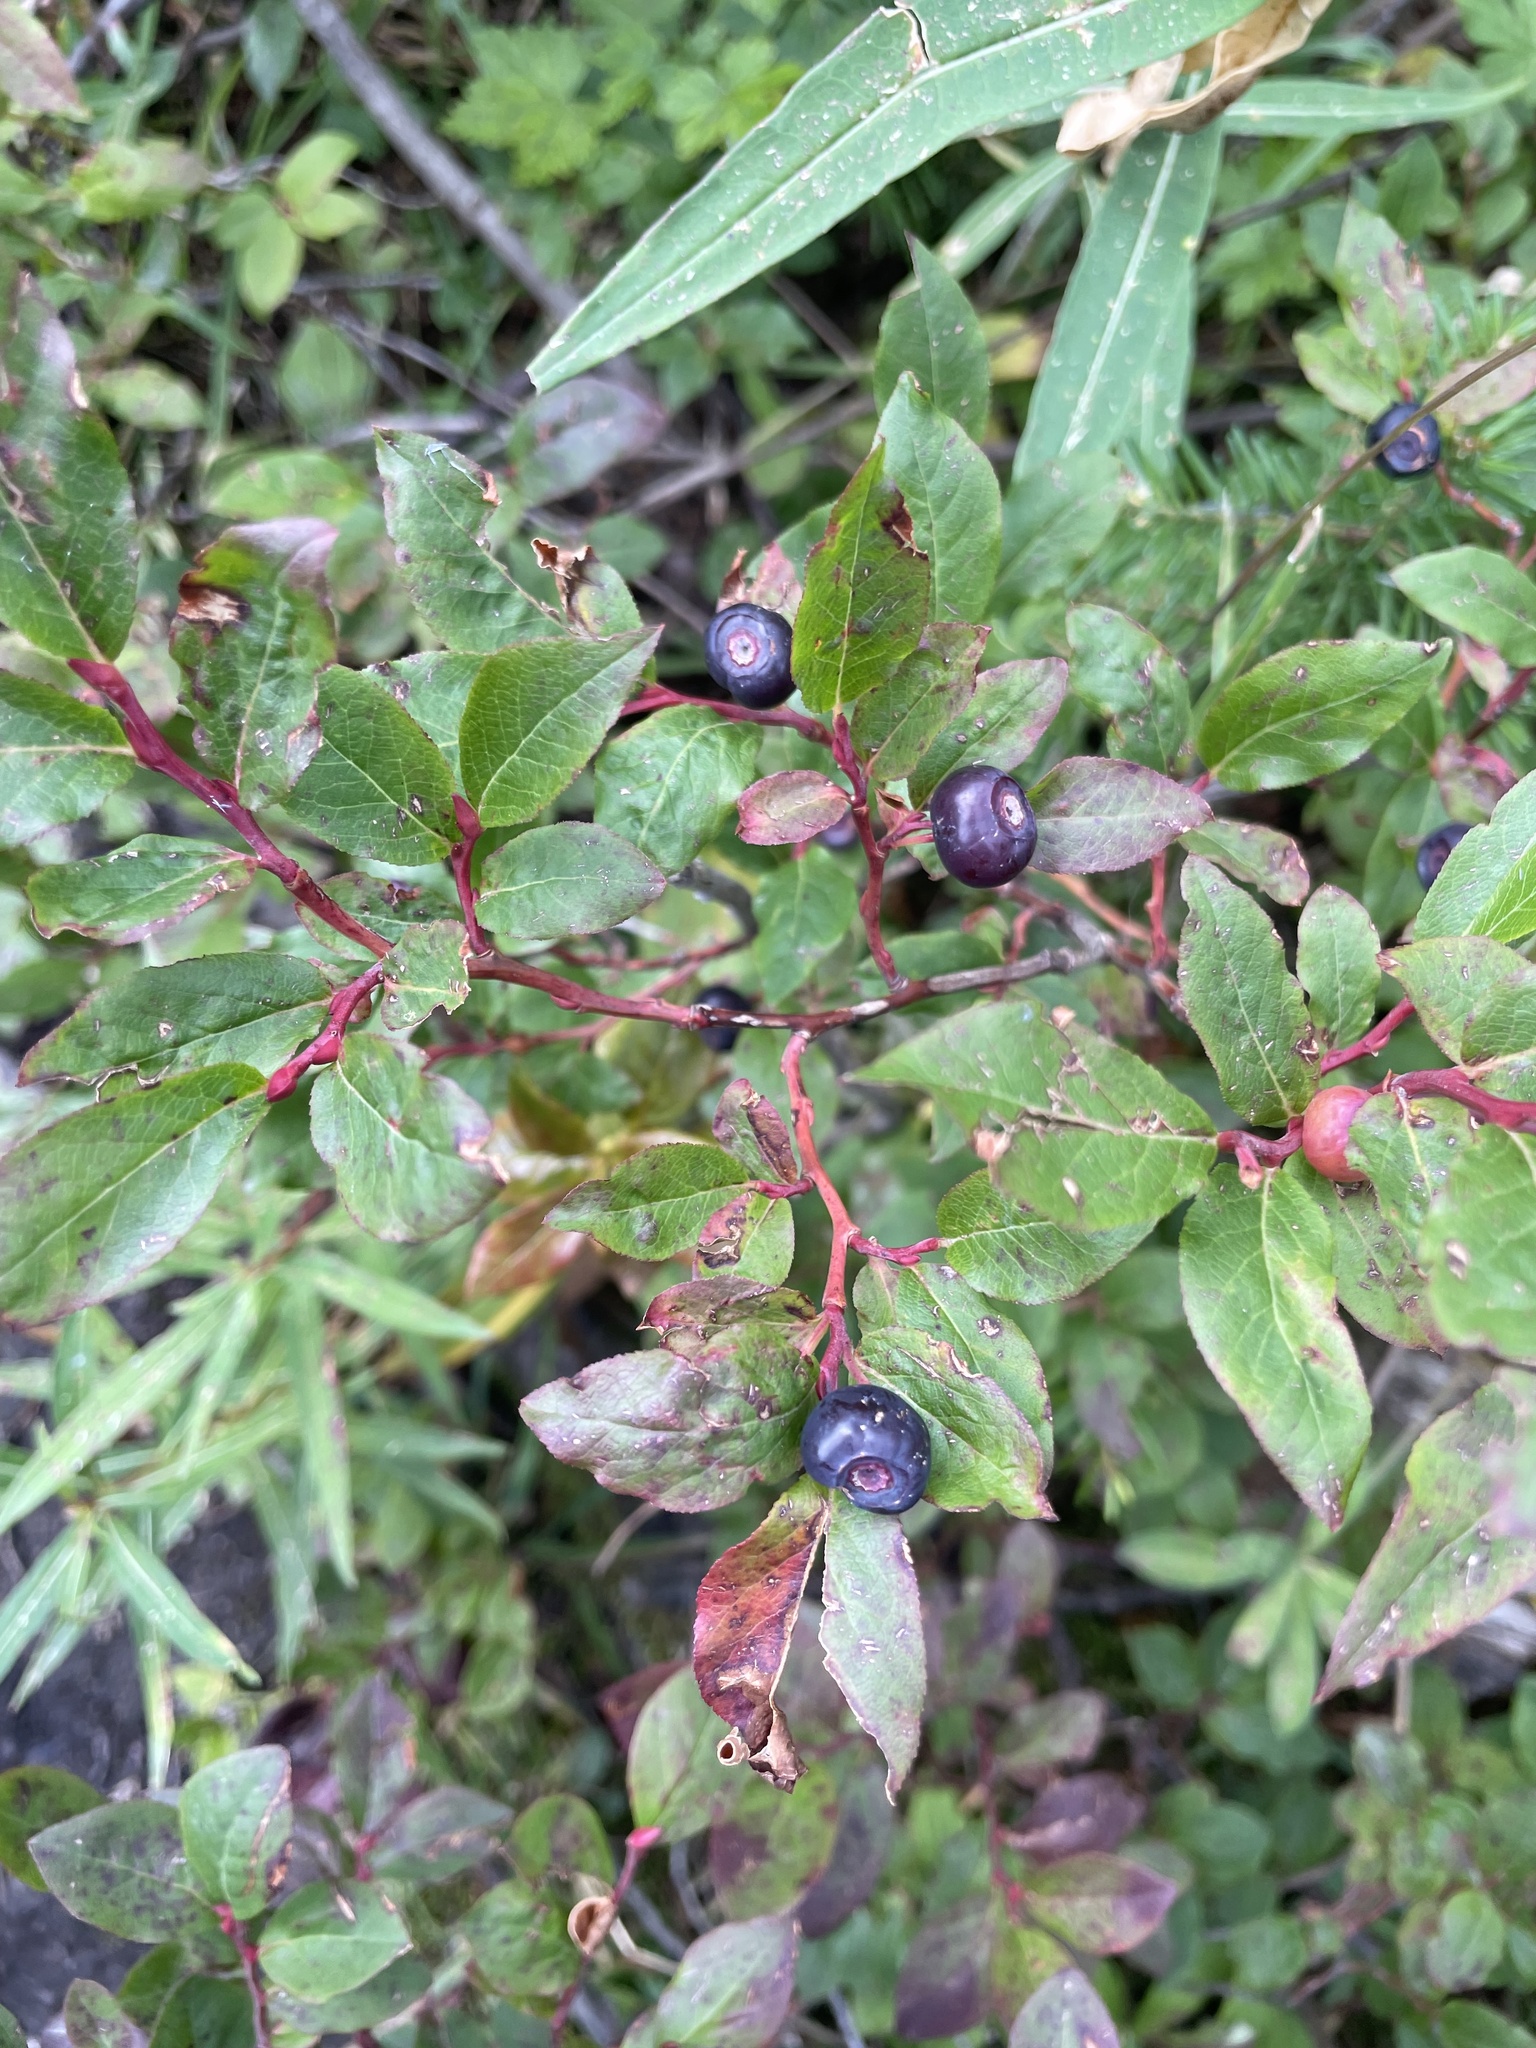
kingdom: Plantae
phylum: Tracheophyta
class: Magnoliopsida
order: Ericales
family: Ericaceae
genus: Vaccinium
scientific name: Vaccinium membranaceum
